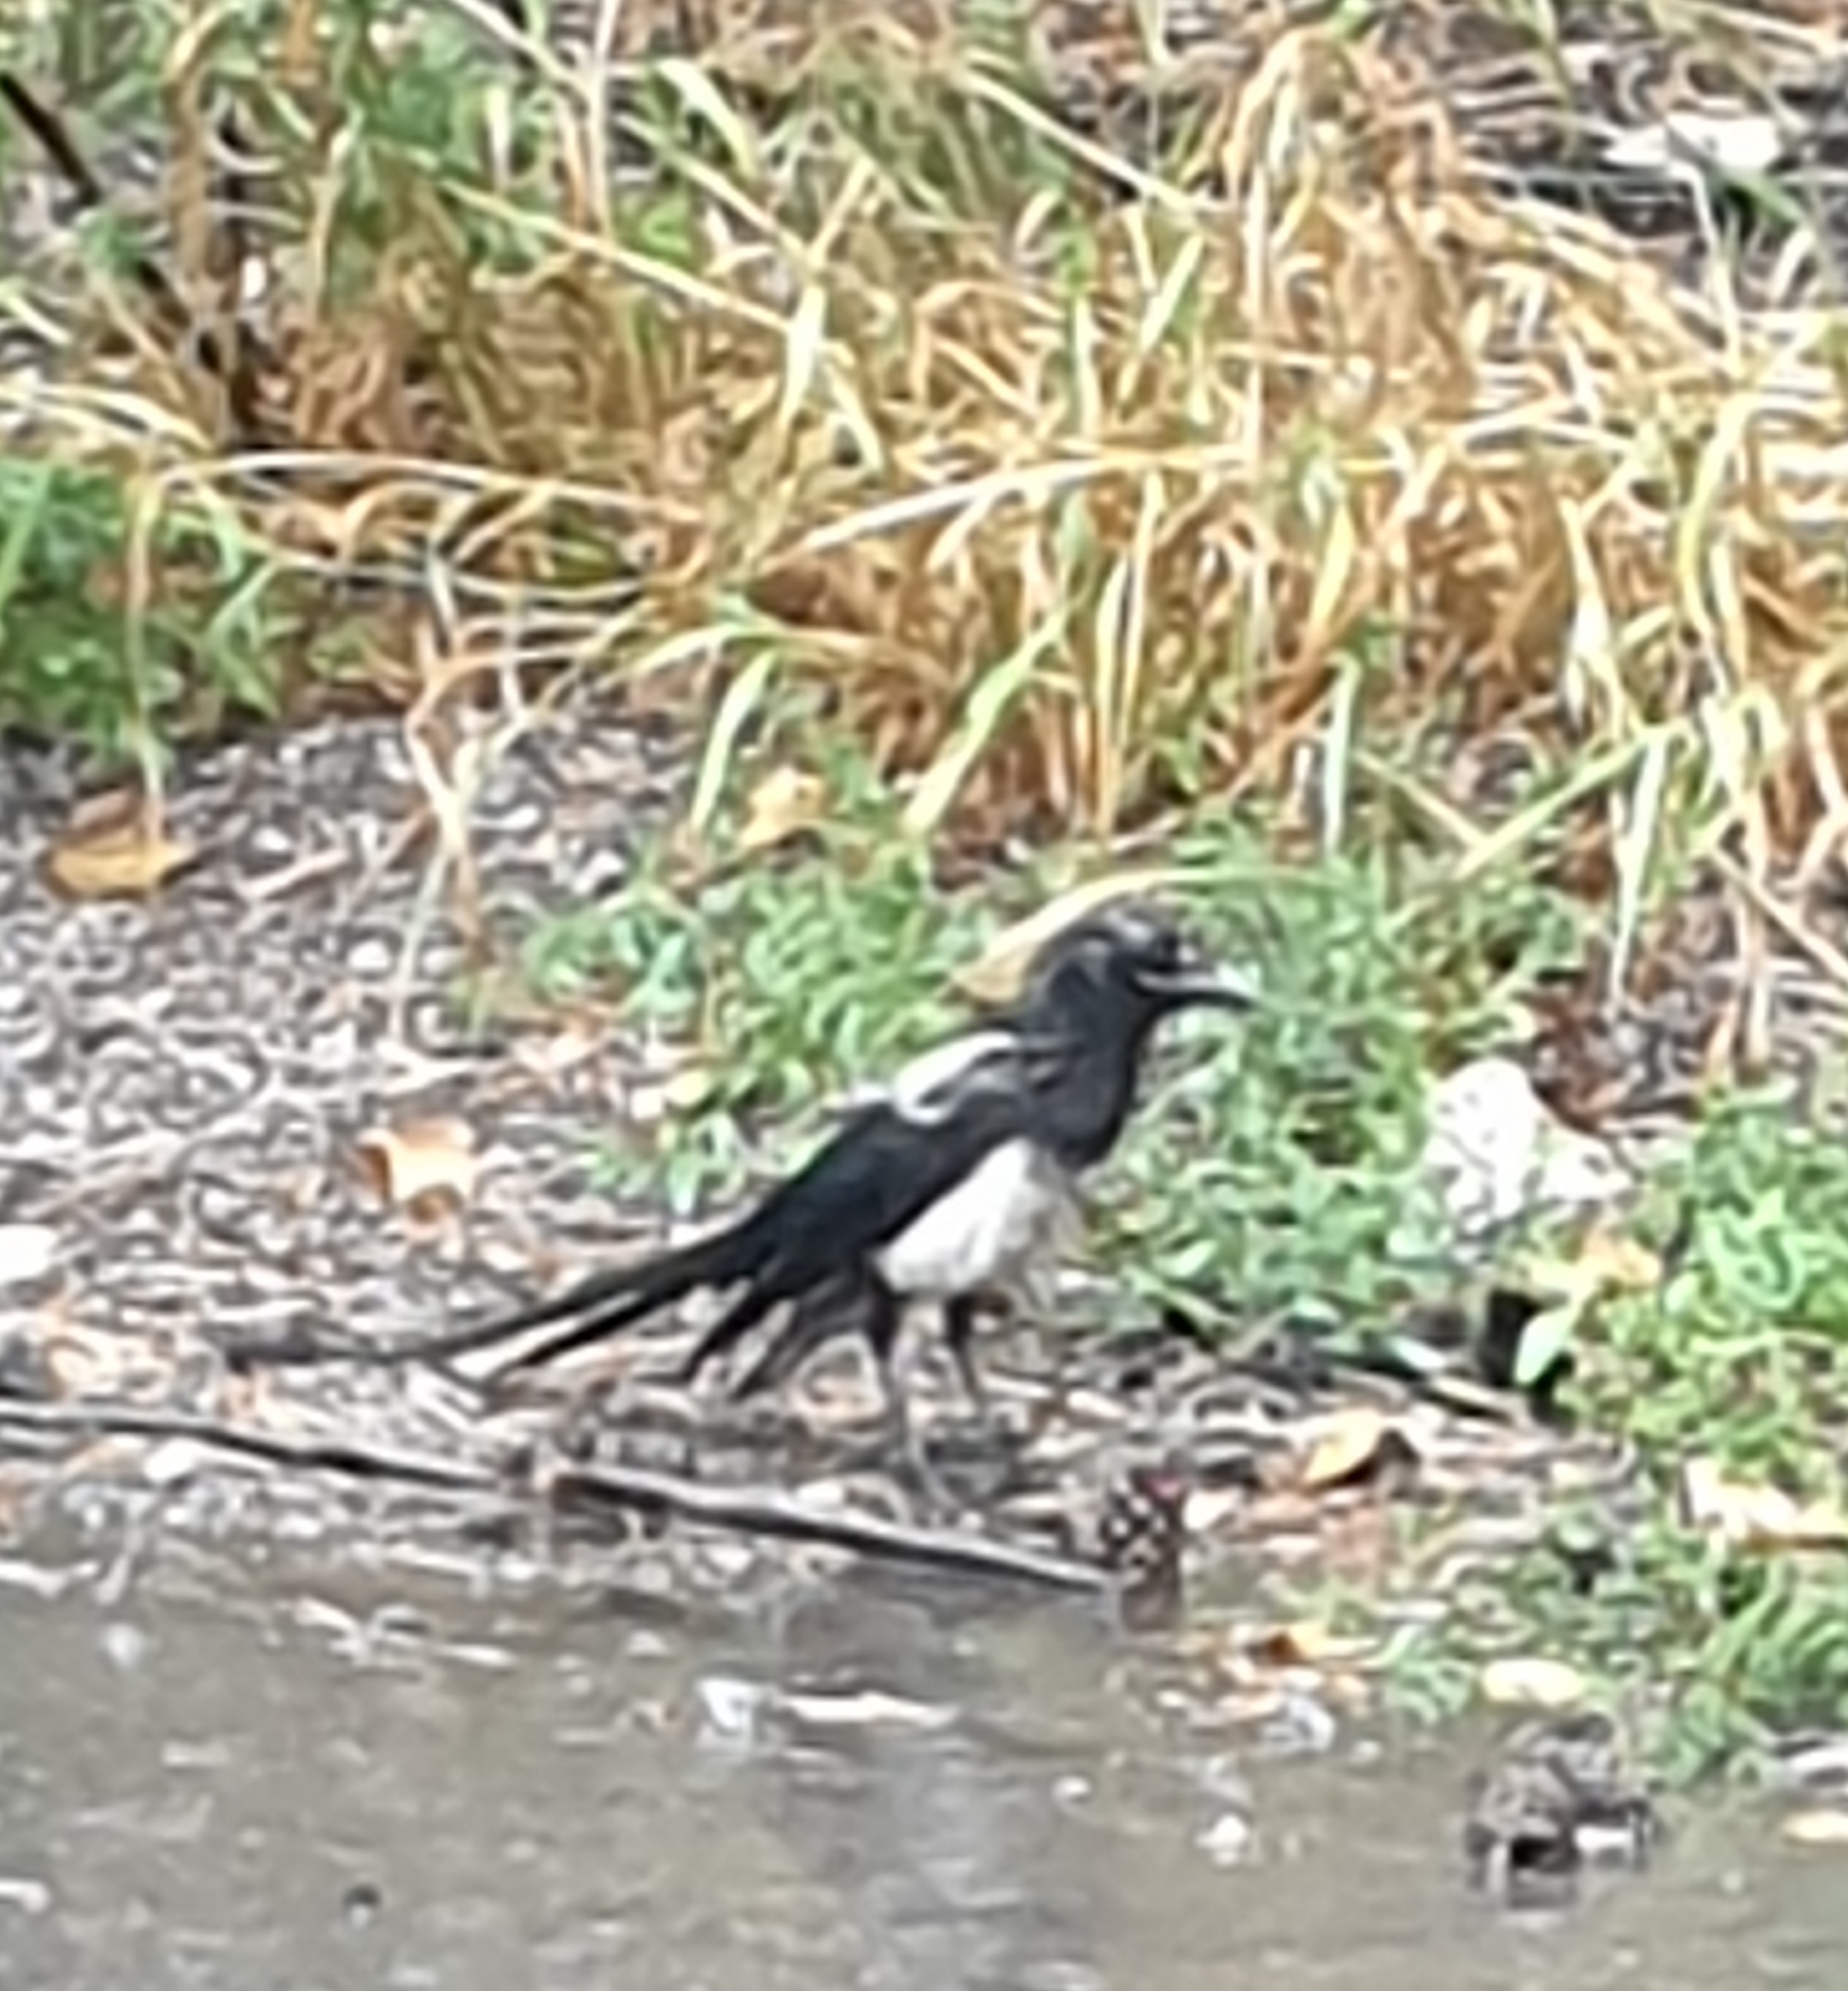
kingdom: Animalia
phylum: Chordata
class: Aves
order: Passeriformes
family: Corvidae
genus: Pica
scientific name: Pica pica
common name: Eurasian magpie
